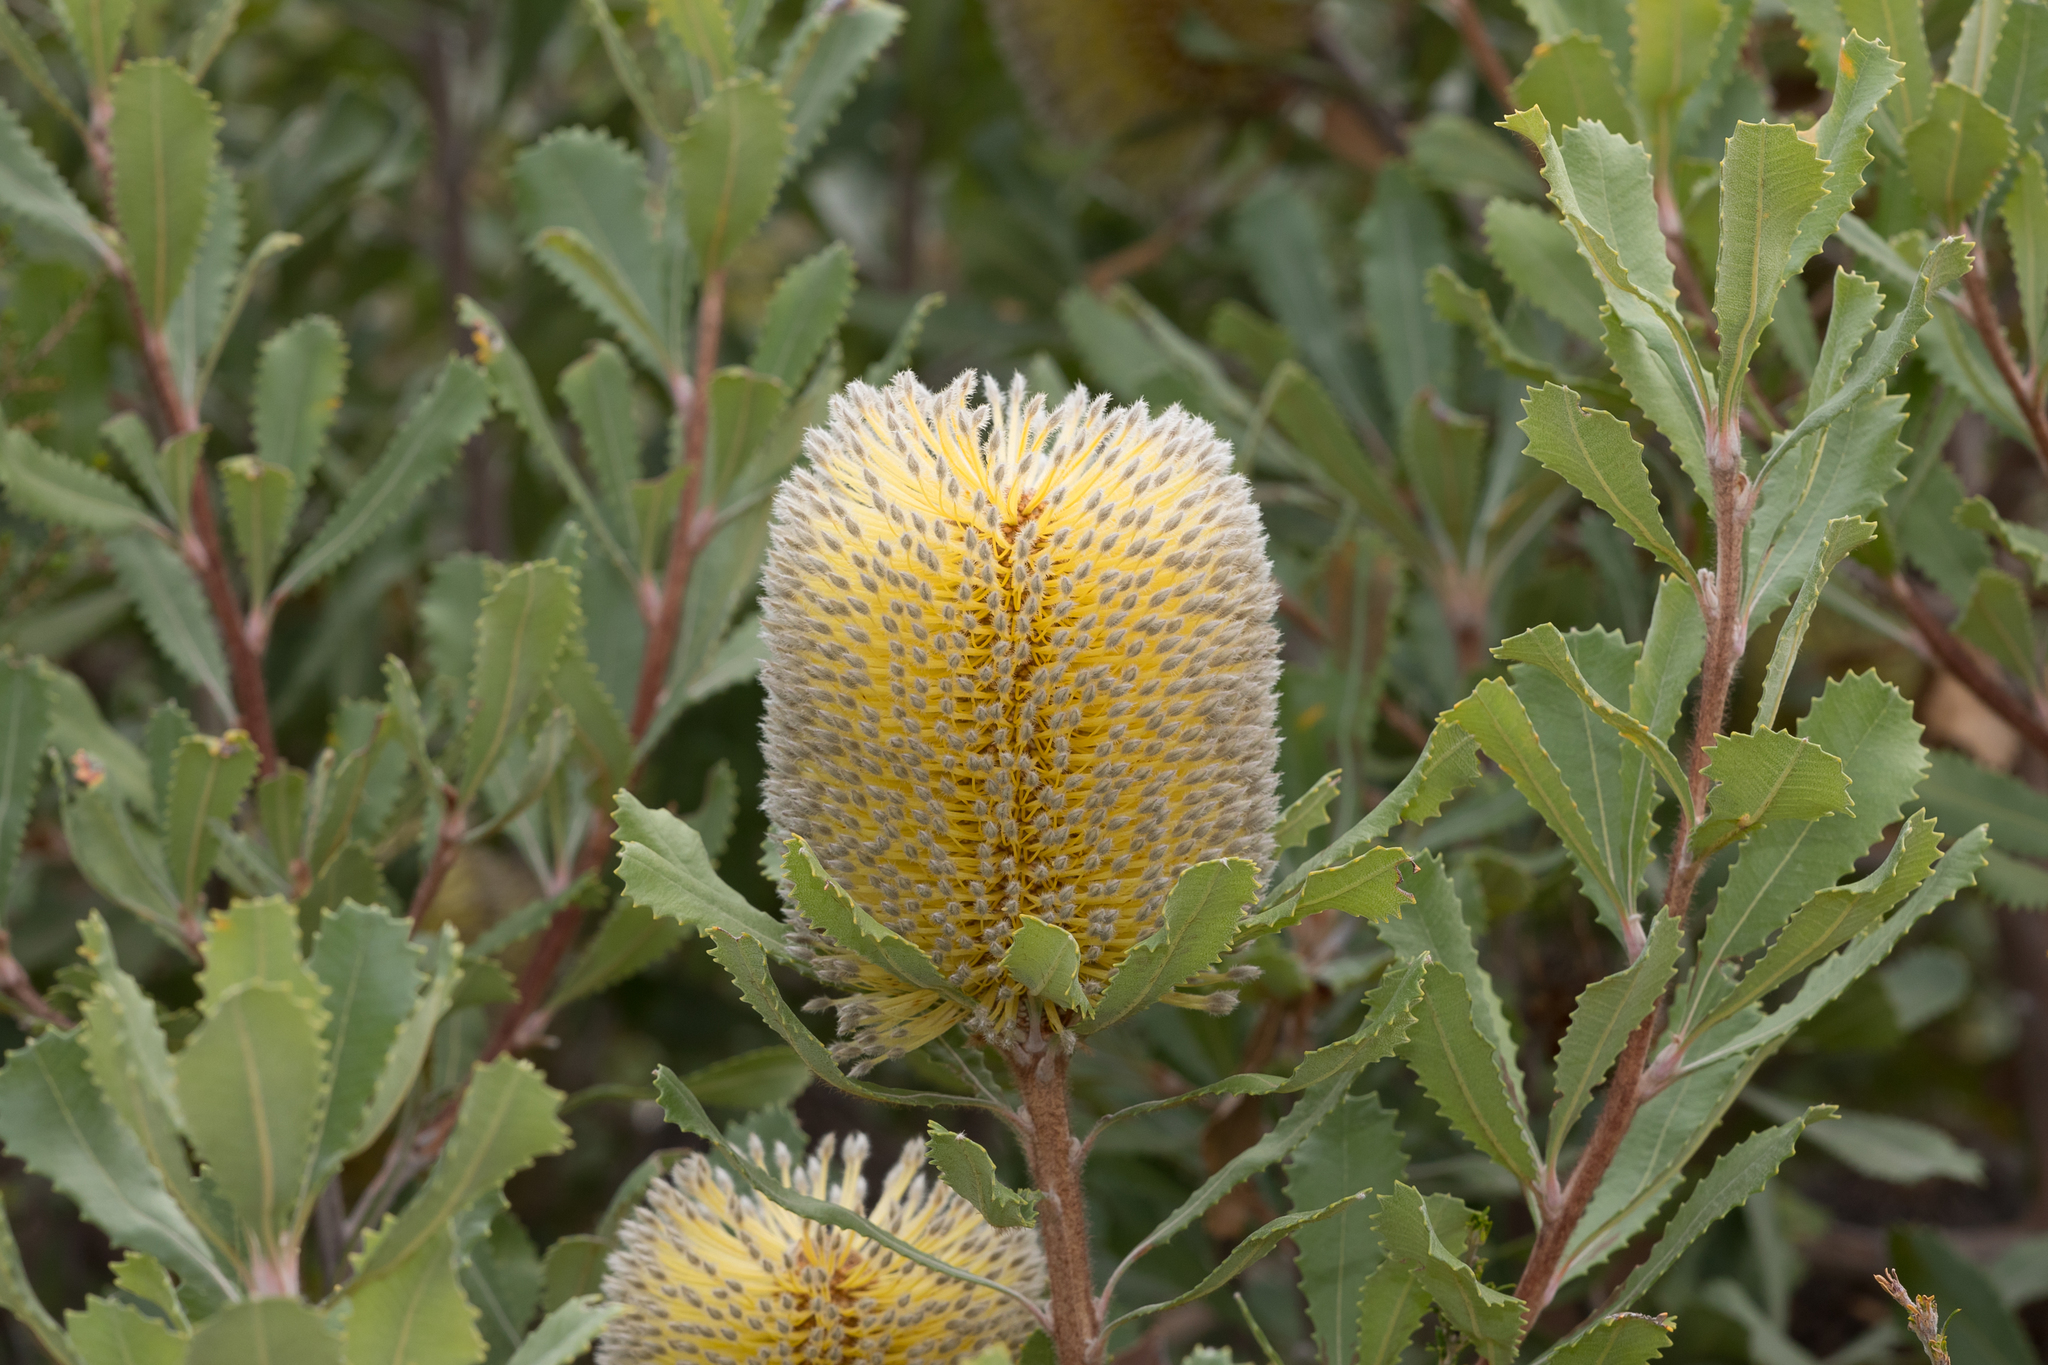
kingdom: Plantae
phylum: Tracheophyta
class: Magnoliopsida
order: Proteales
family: Proteaceae
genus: Banksia
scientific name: Banksia ornata
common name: Desert banksia
